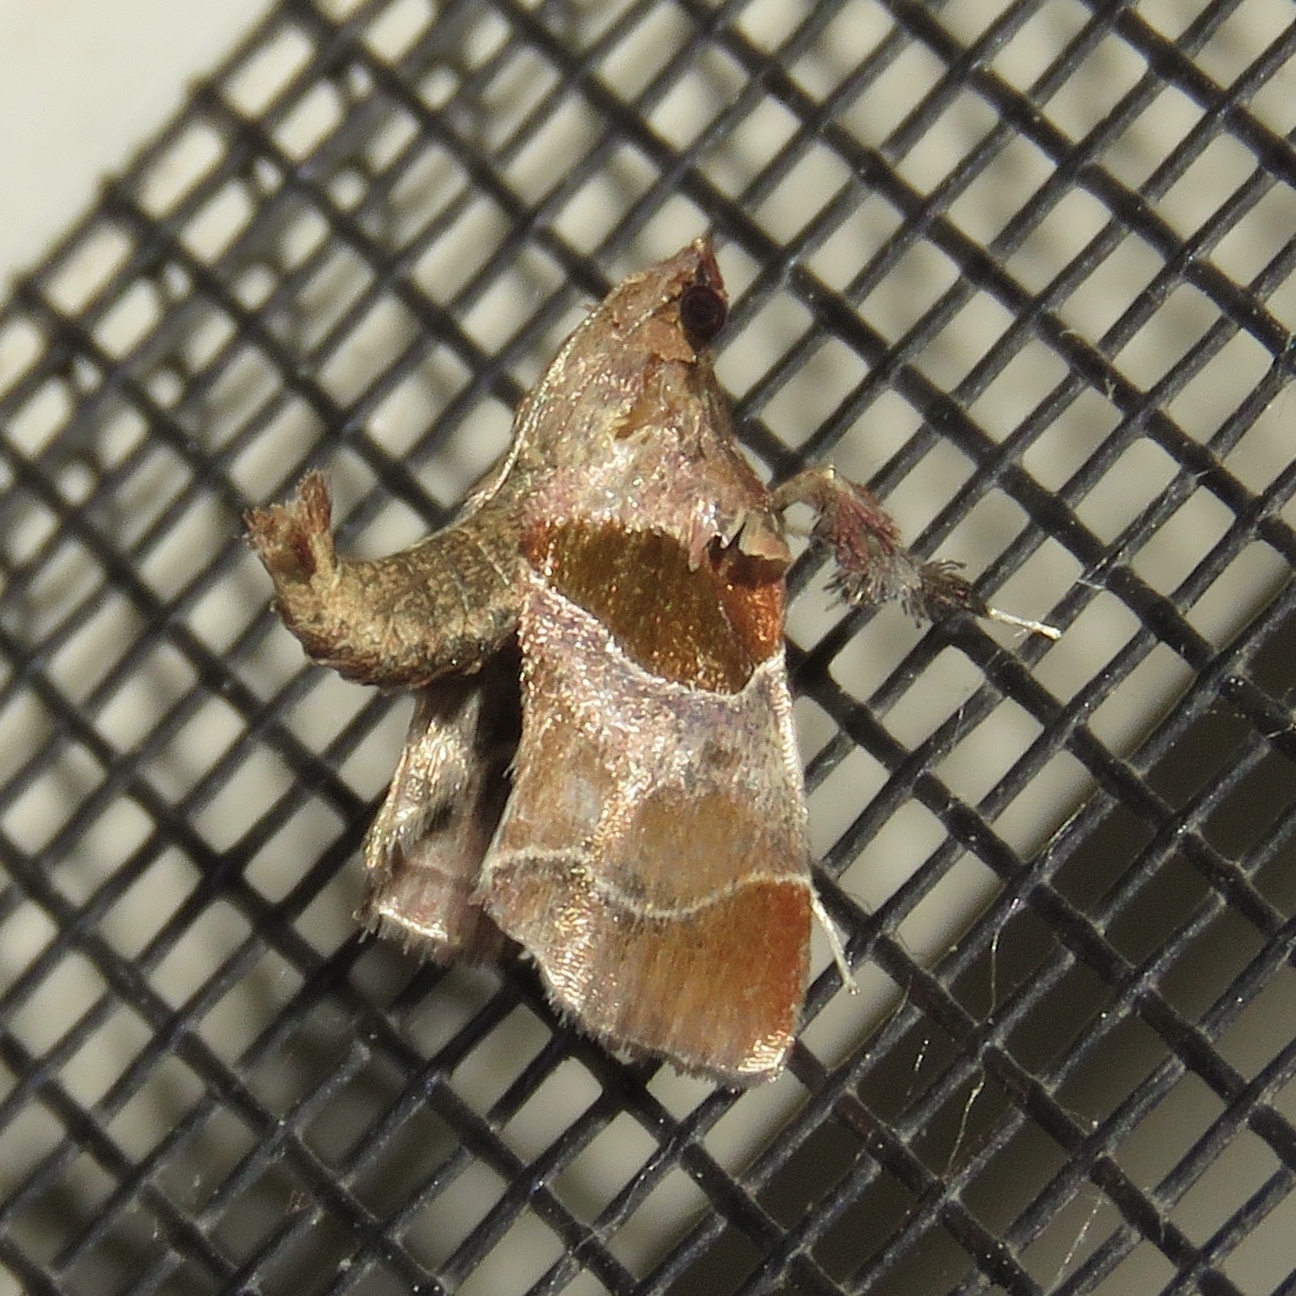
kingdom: Animalia
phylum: Arthropoda
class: Insecta
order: Lepidoptera
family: Pyralidae
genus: Tosale
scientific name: Tosale oviplagalis
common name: Dimorphic tosale moth
